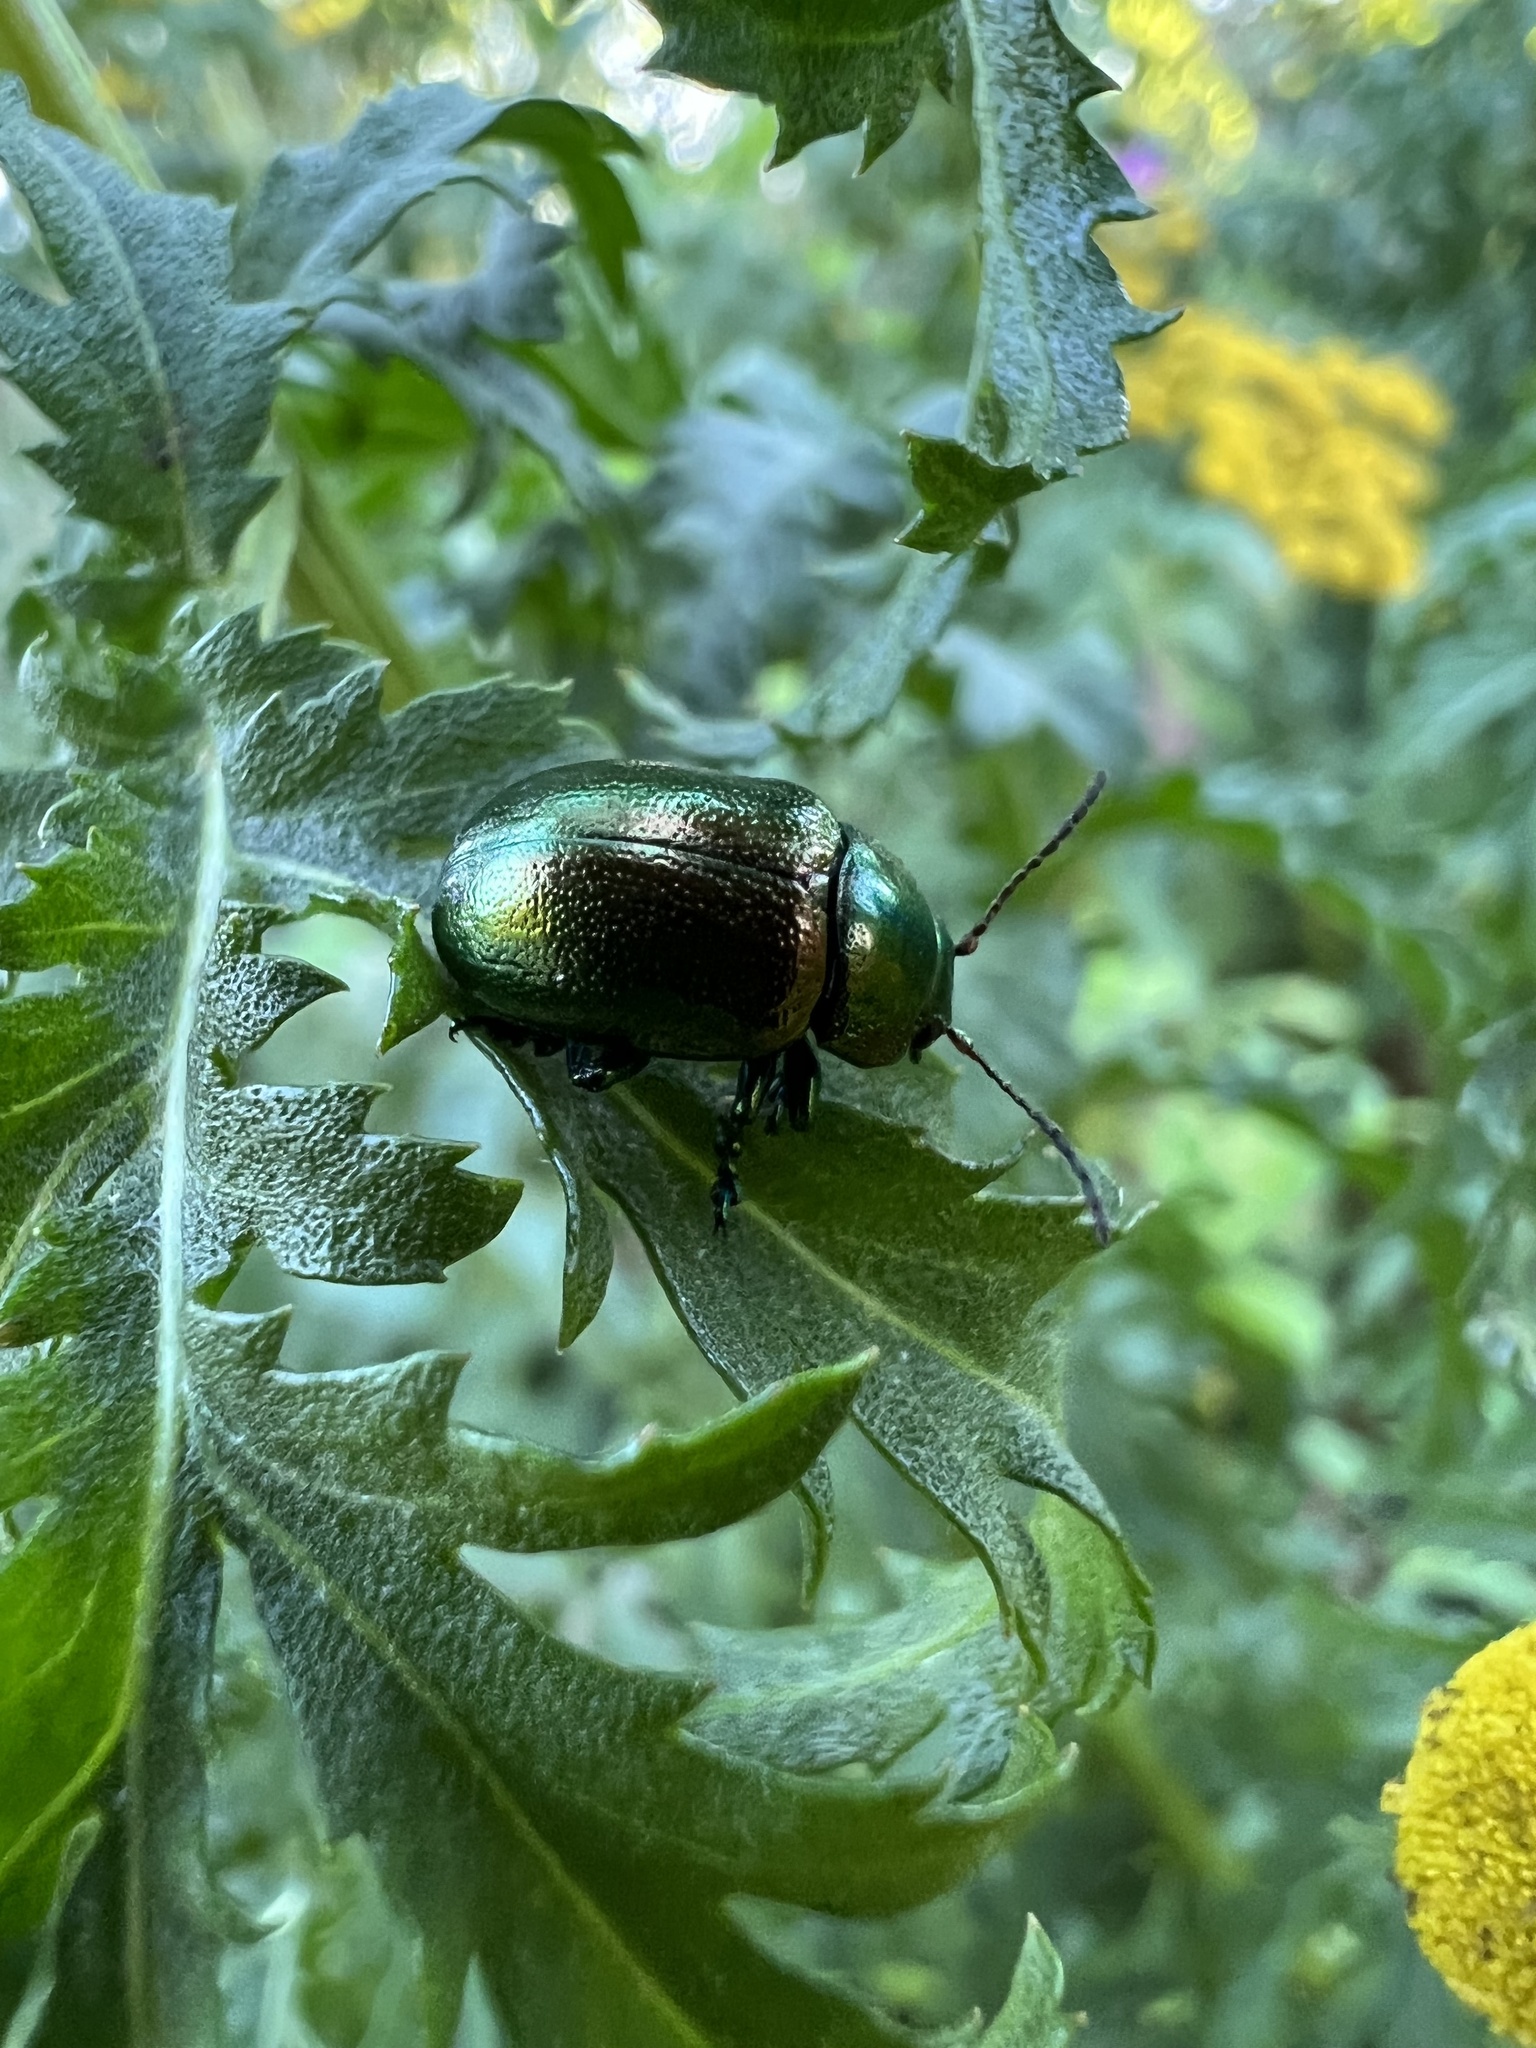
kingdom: Animalia
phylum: Arthropoda
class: Insecta
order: Coleoptera
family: Chrysomelidae
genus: Chrysolina
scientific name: Chrysolina graminis
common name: Tansey beetle
